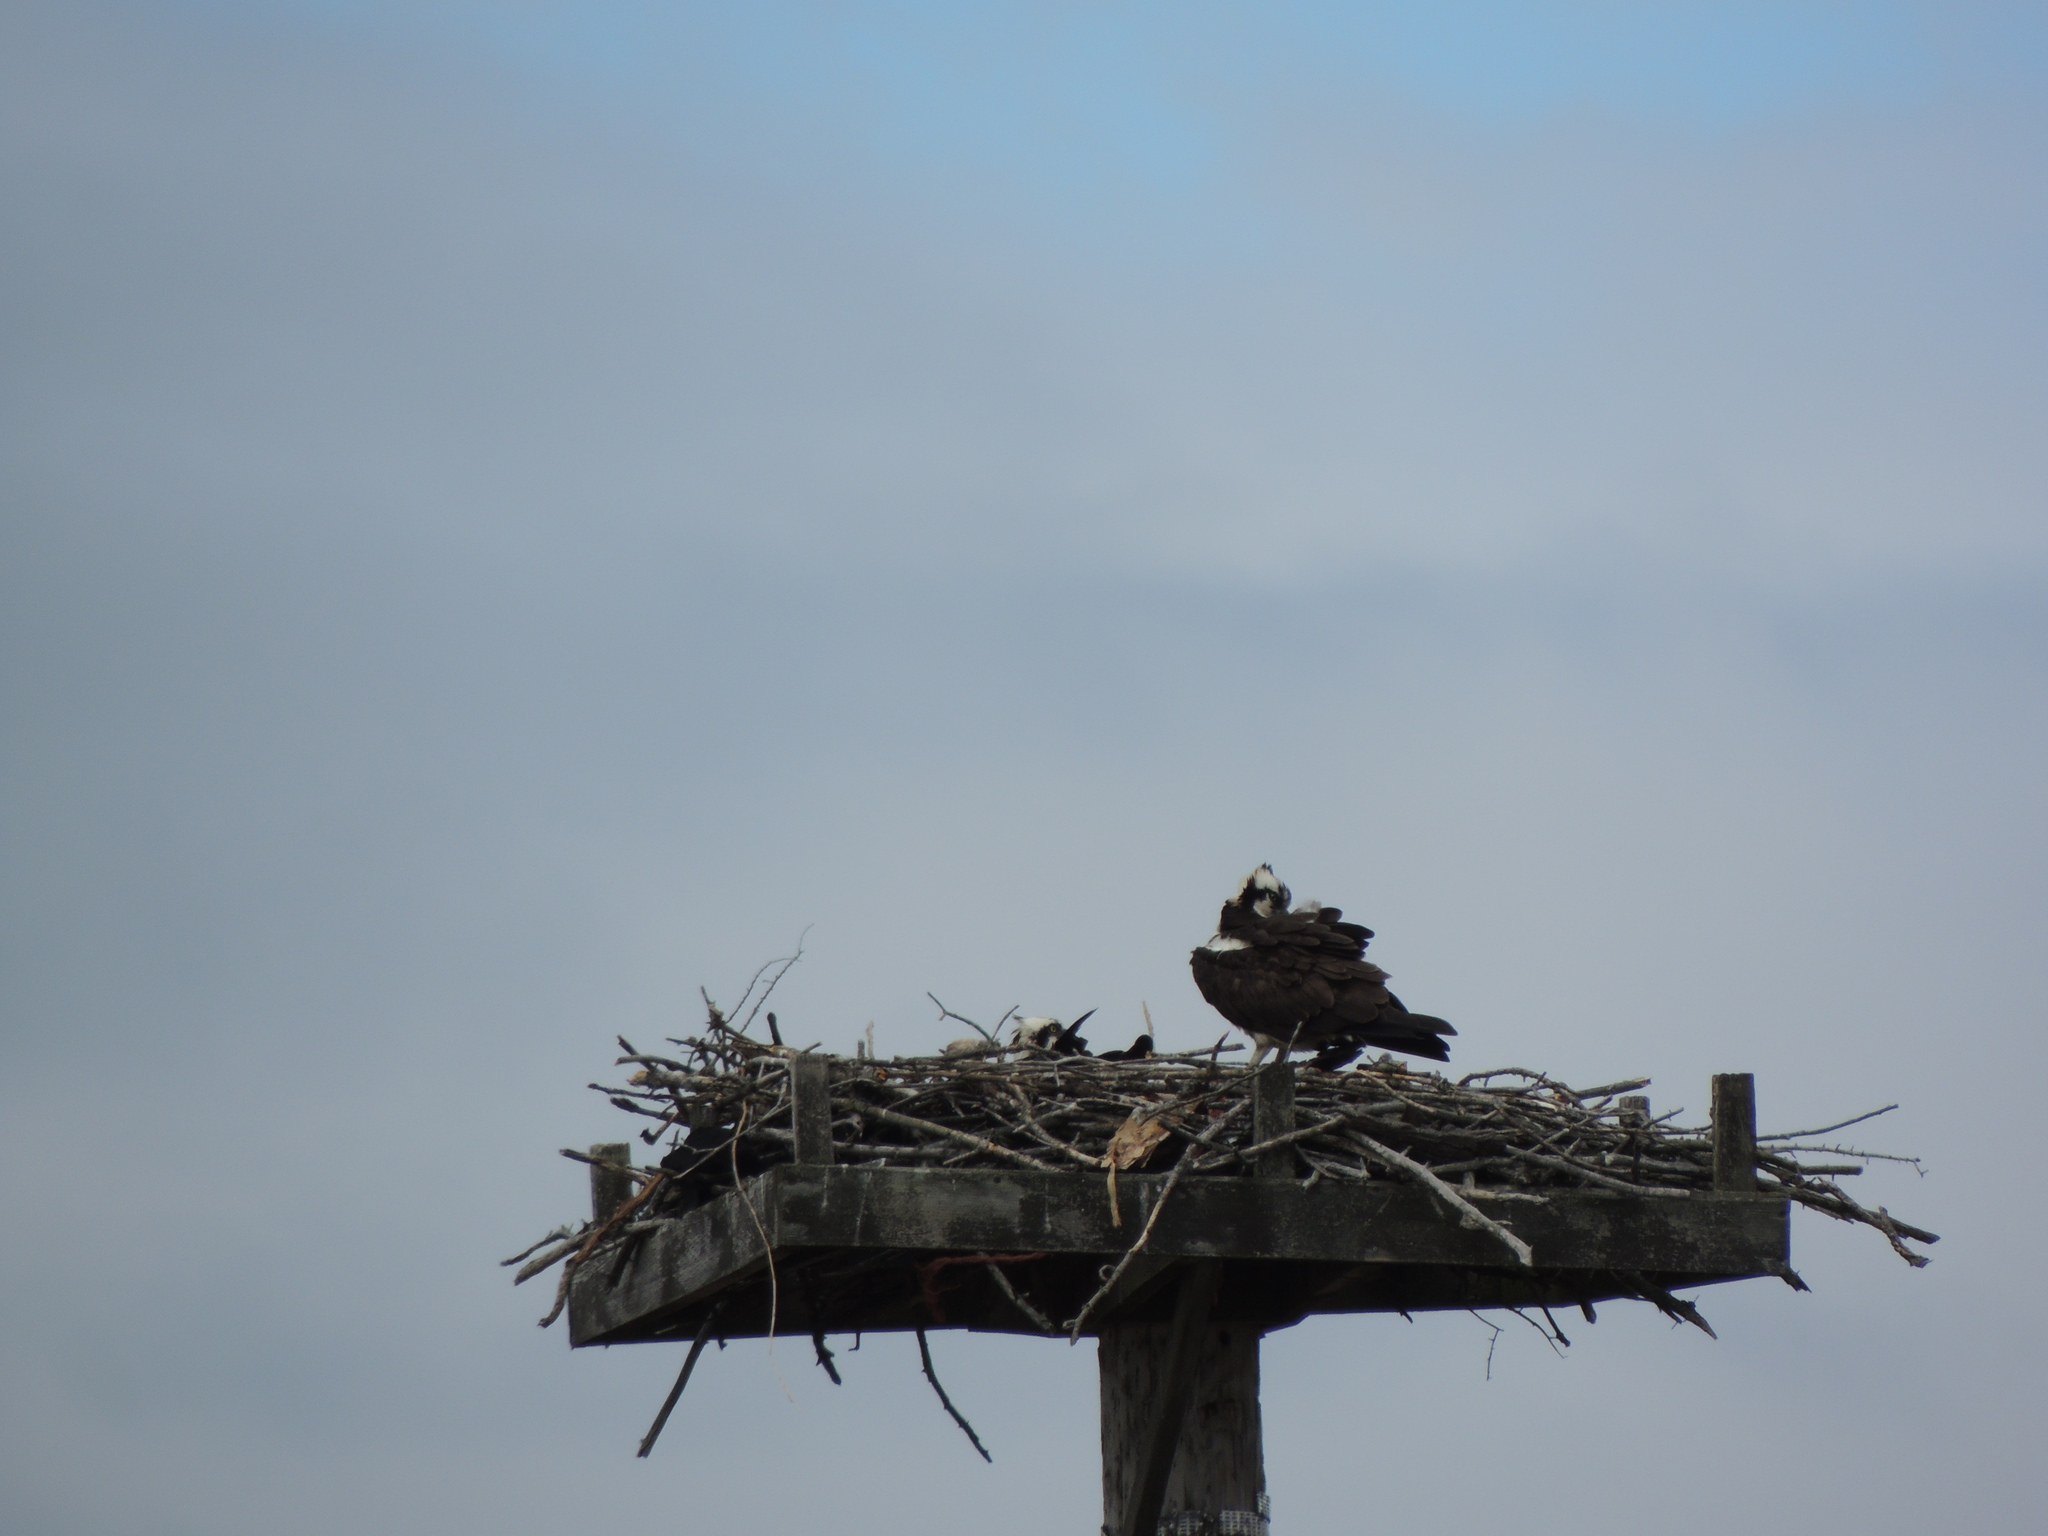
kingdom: Animalia
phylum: Chordata
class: Aves
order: Accipitriformes
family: Pandionidae
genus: Pandion
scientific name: Pandion haliaetus
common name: Osprey
